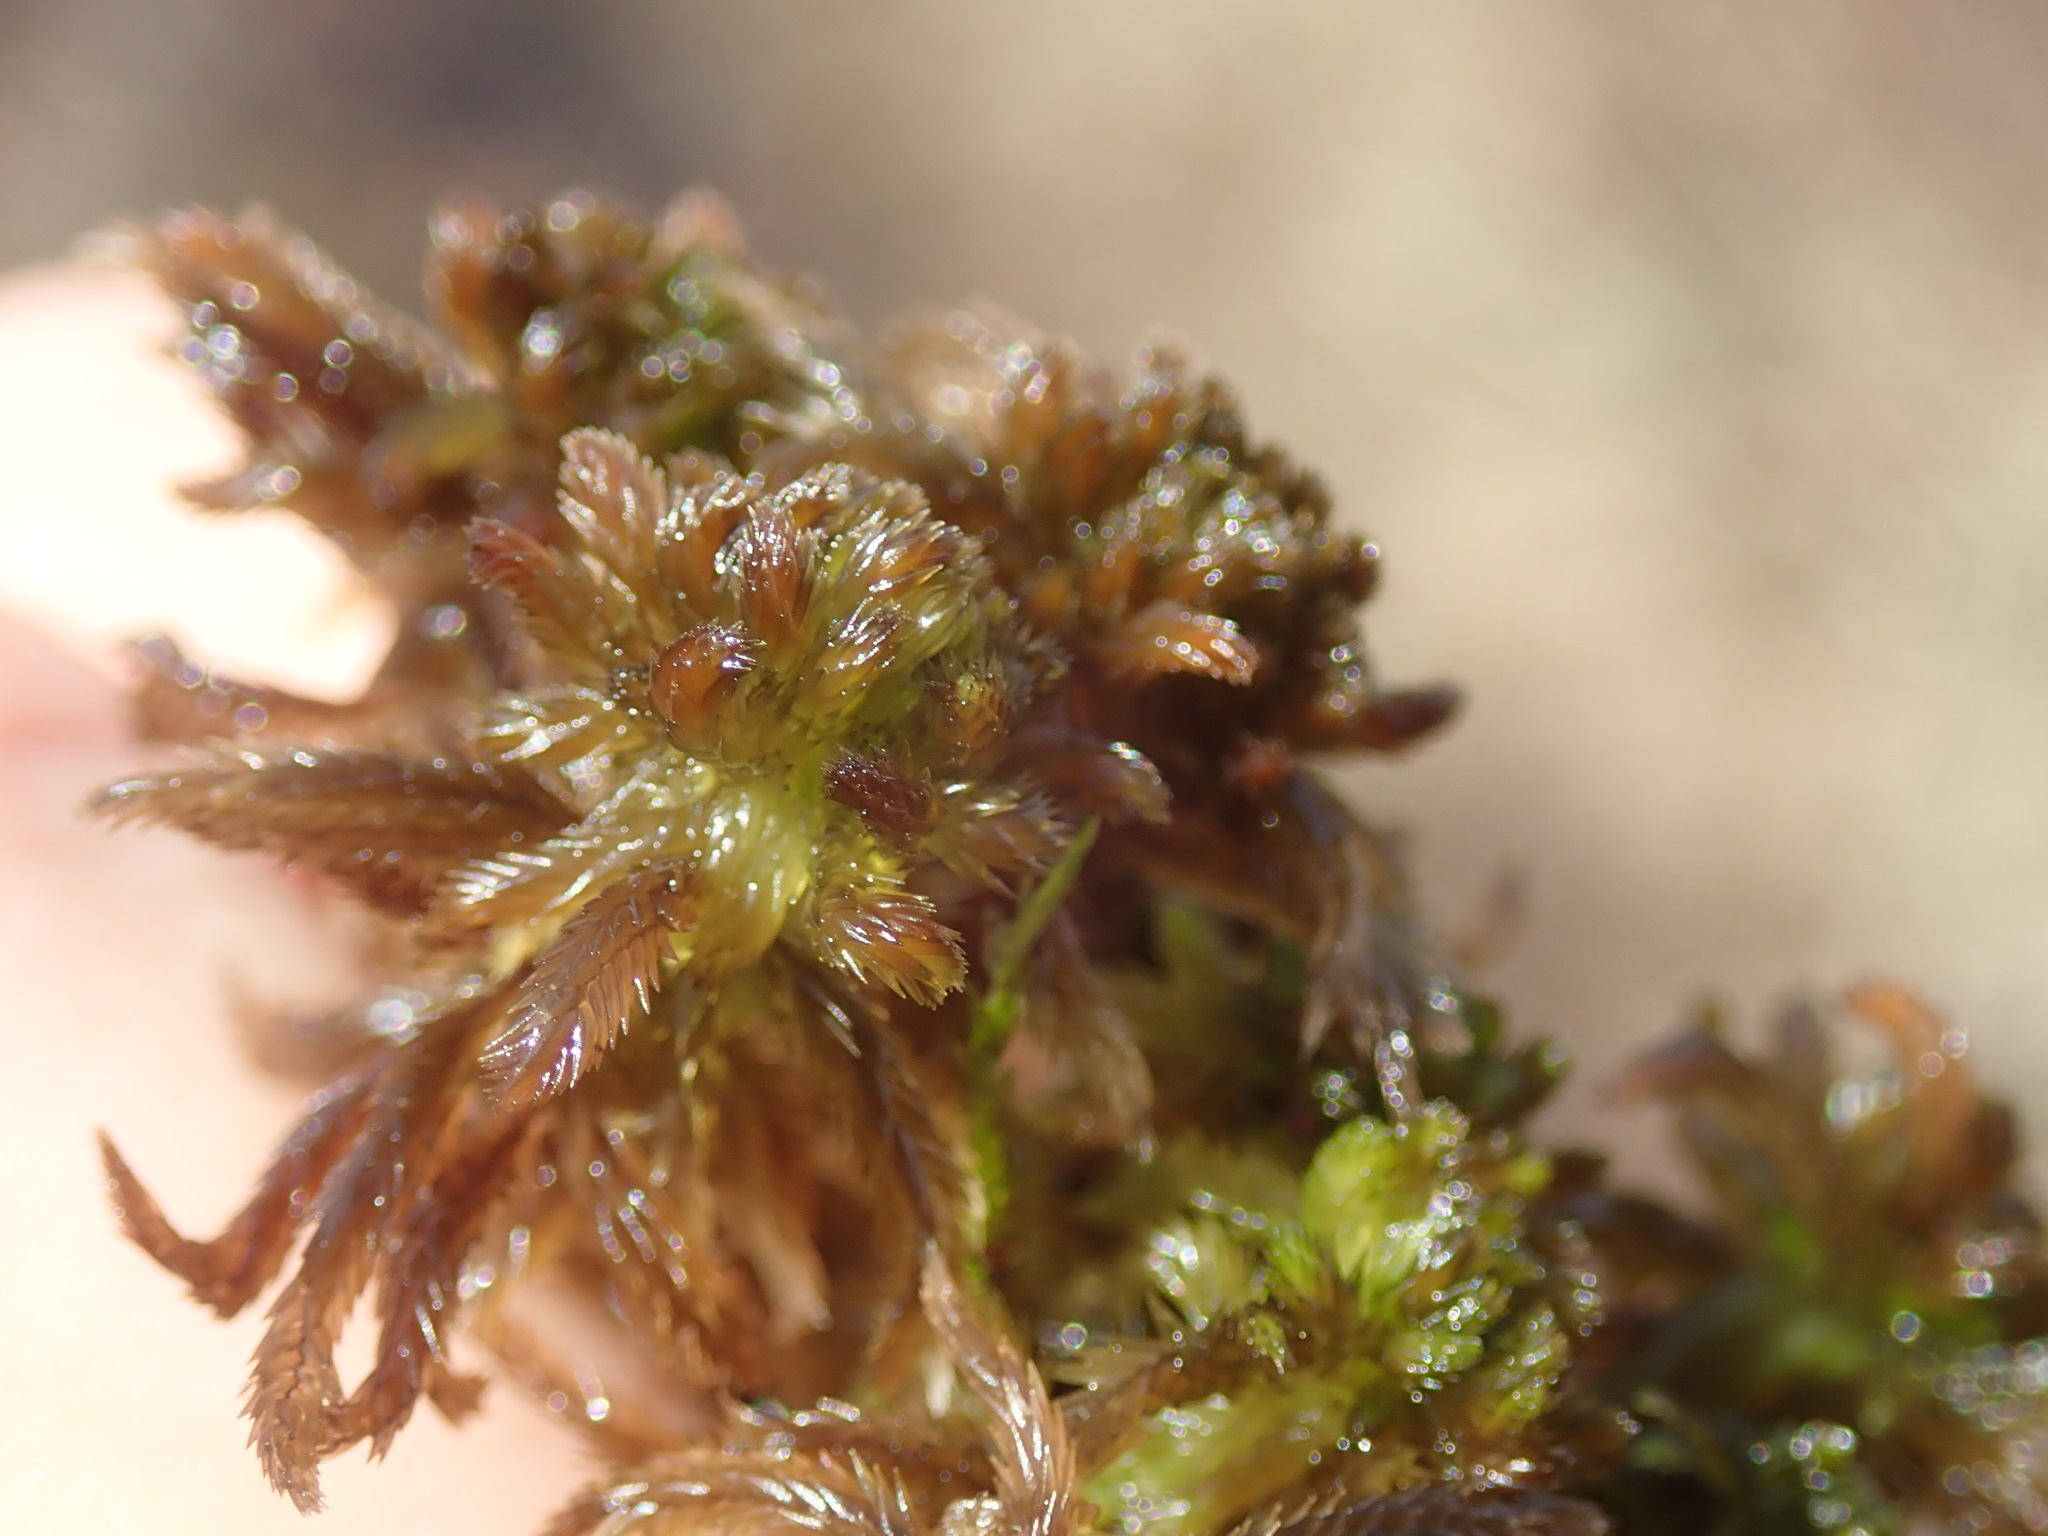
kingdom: Plantae
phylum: Bryophyta
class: Sphagnopsida
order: Sphagnales
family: Sphagnaceae
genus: Sphagnum
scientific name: Sphagnum mendocinum
